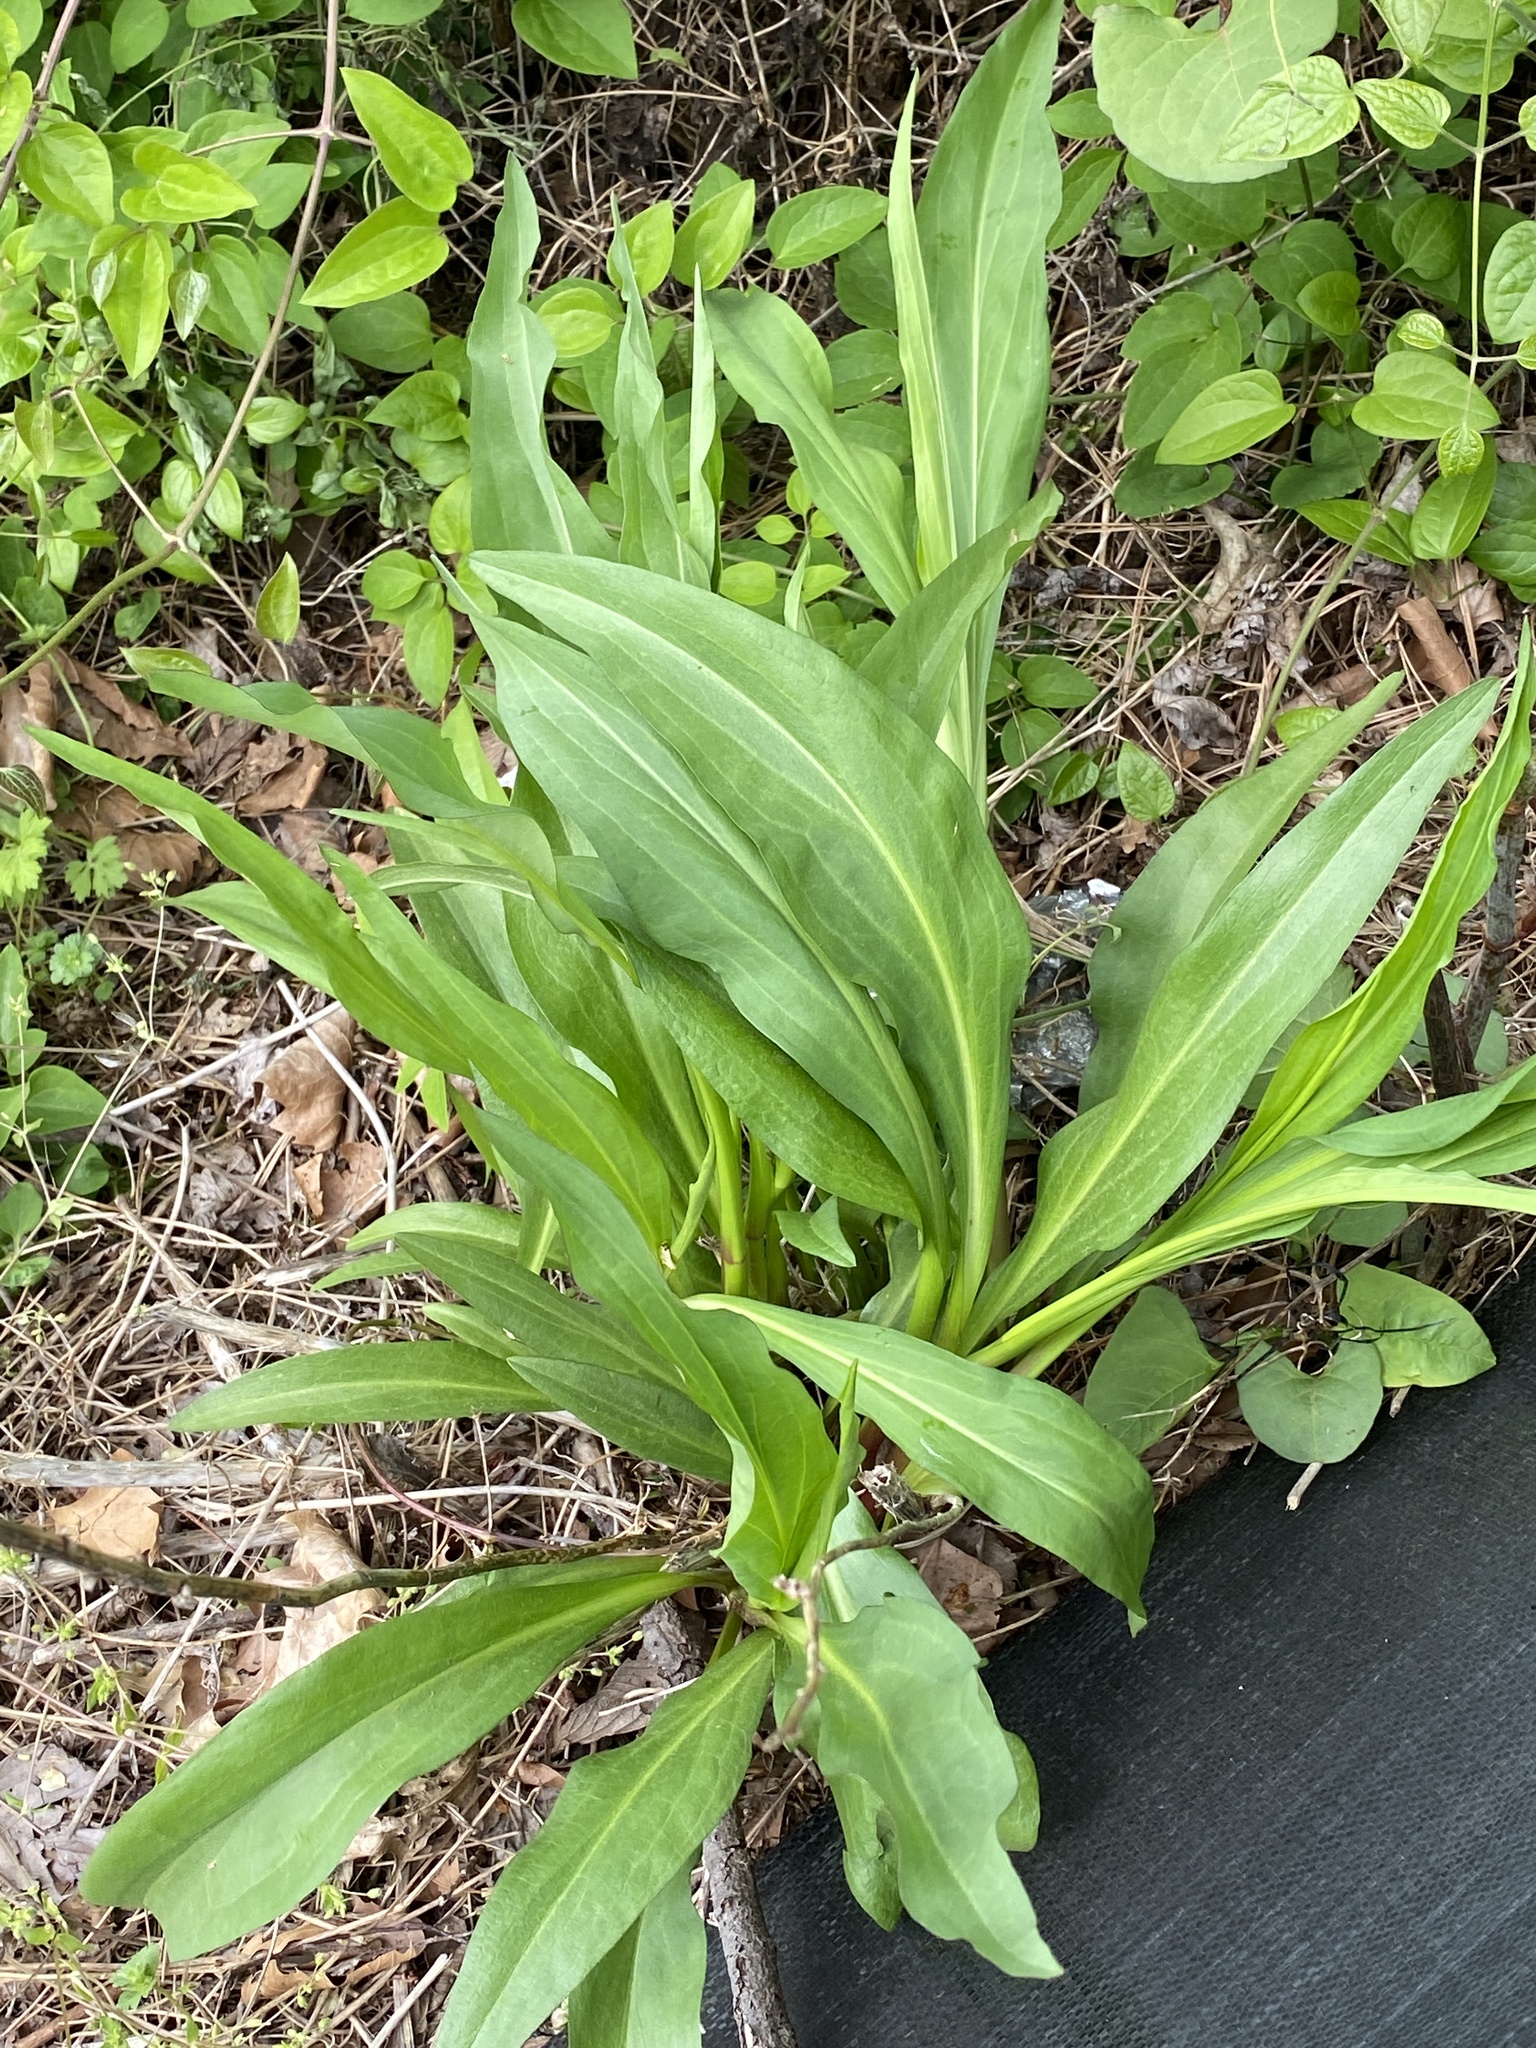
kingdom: Plantae
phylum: Tracheophyta
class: Magnoliopsida
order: Asterales
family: Asteraceae
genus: Solidago
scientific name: Solidago sempervirens
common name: Salt-marsh goldenrod
